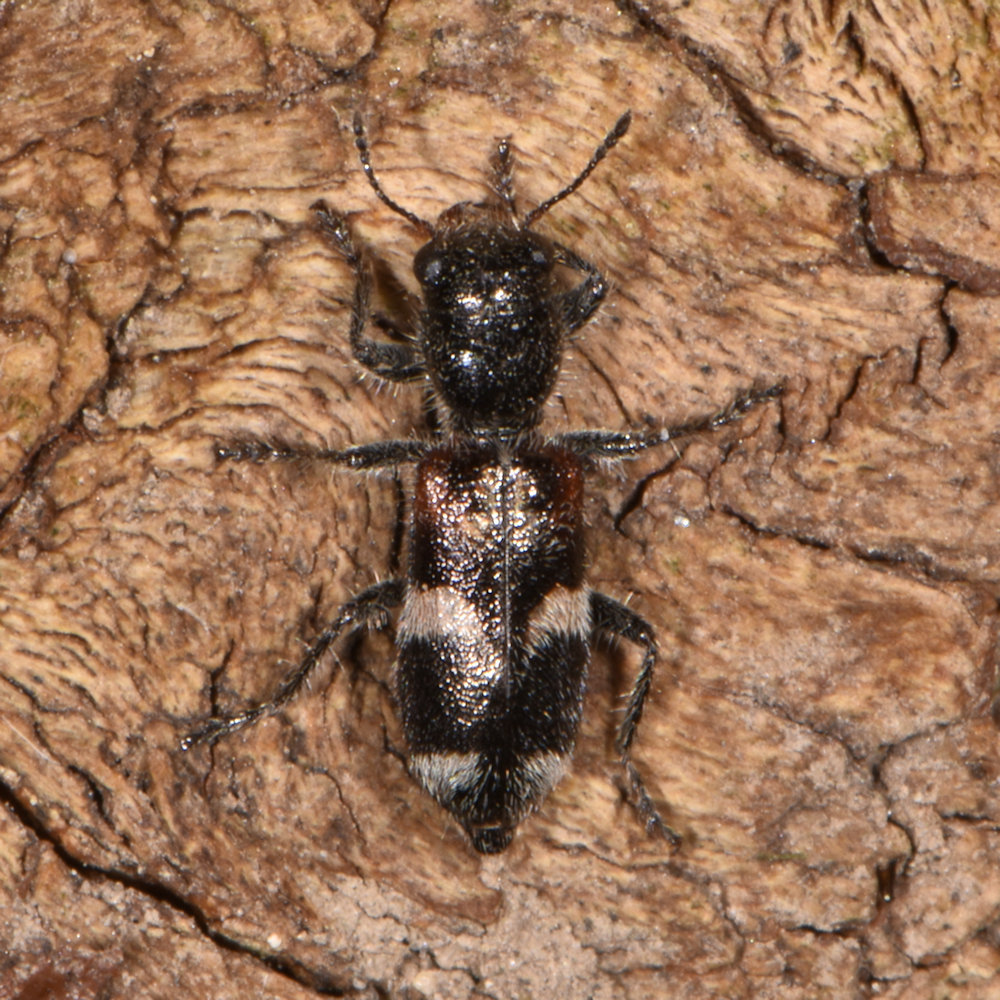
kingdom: Animalia
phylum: Arthropoda
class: Insecta
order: Coleoptera
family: Cleridae
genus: Enoclerus
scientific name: Enoclerus nigrifrons
